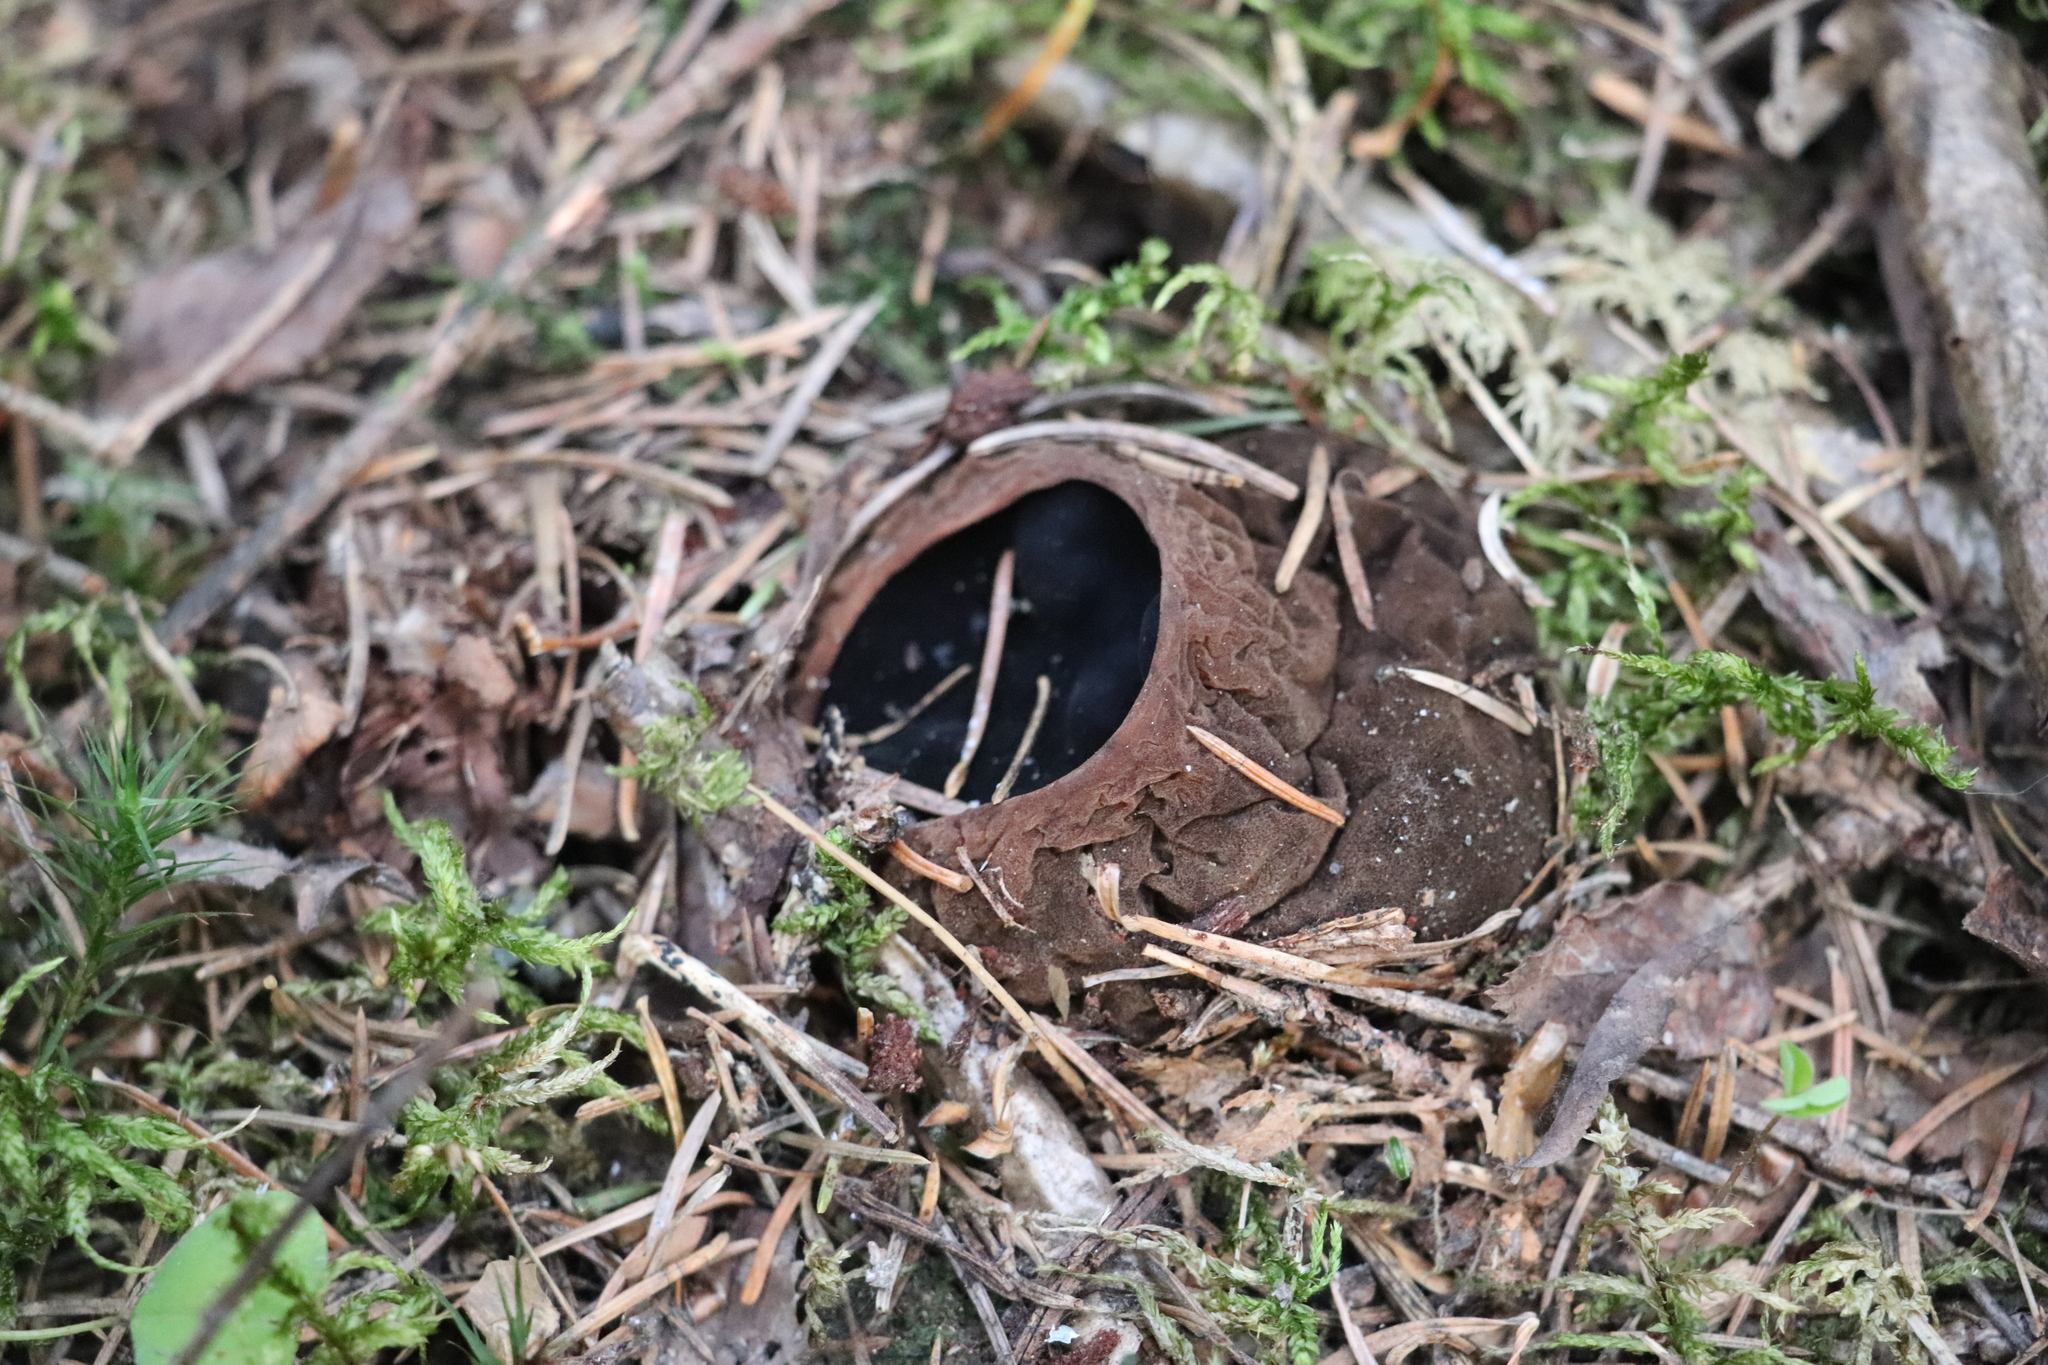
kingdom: Fungi
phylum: Ascomycota
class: Pezizomycetes
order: Pezizales
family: Sarcosomataceae
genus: Sarcosoma
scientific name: Sarcosoma globosum
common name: Charred-pancake cup
